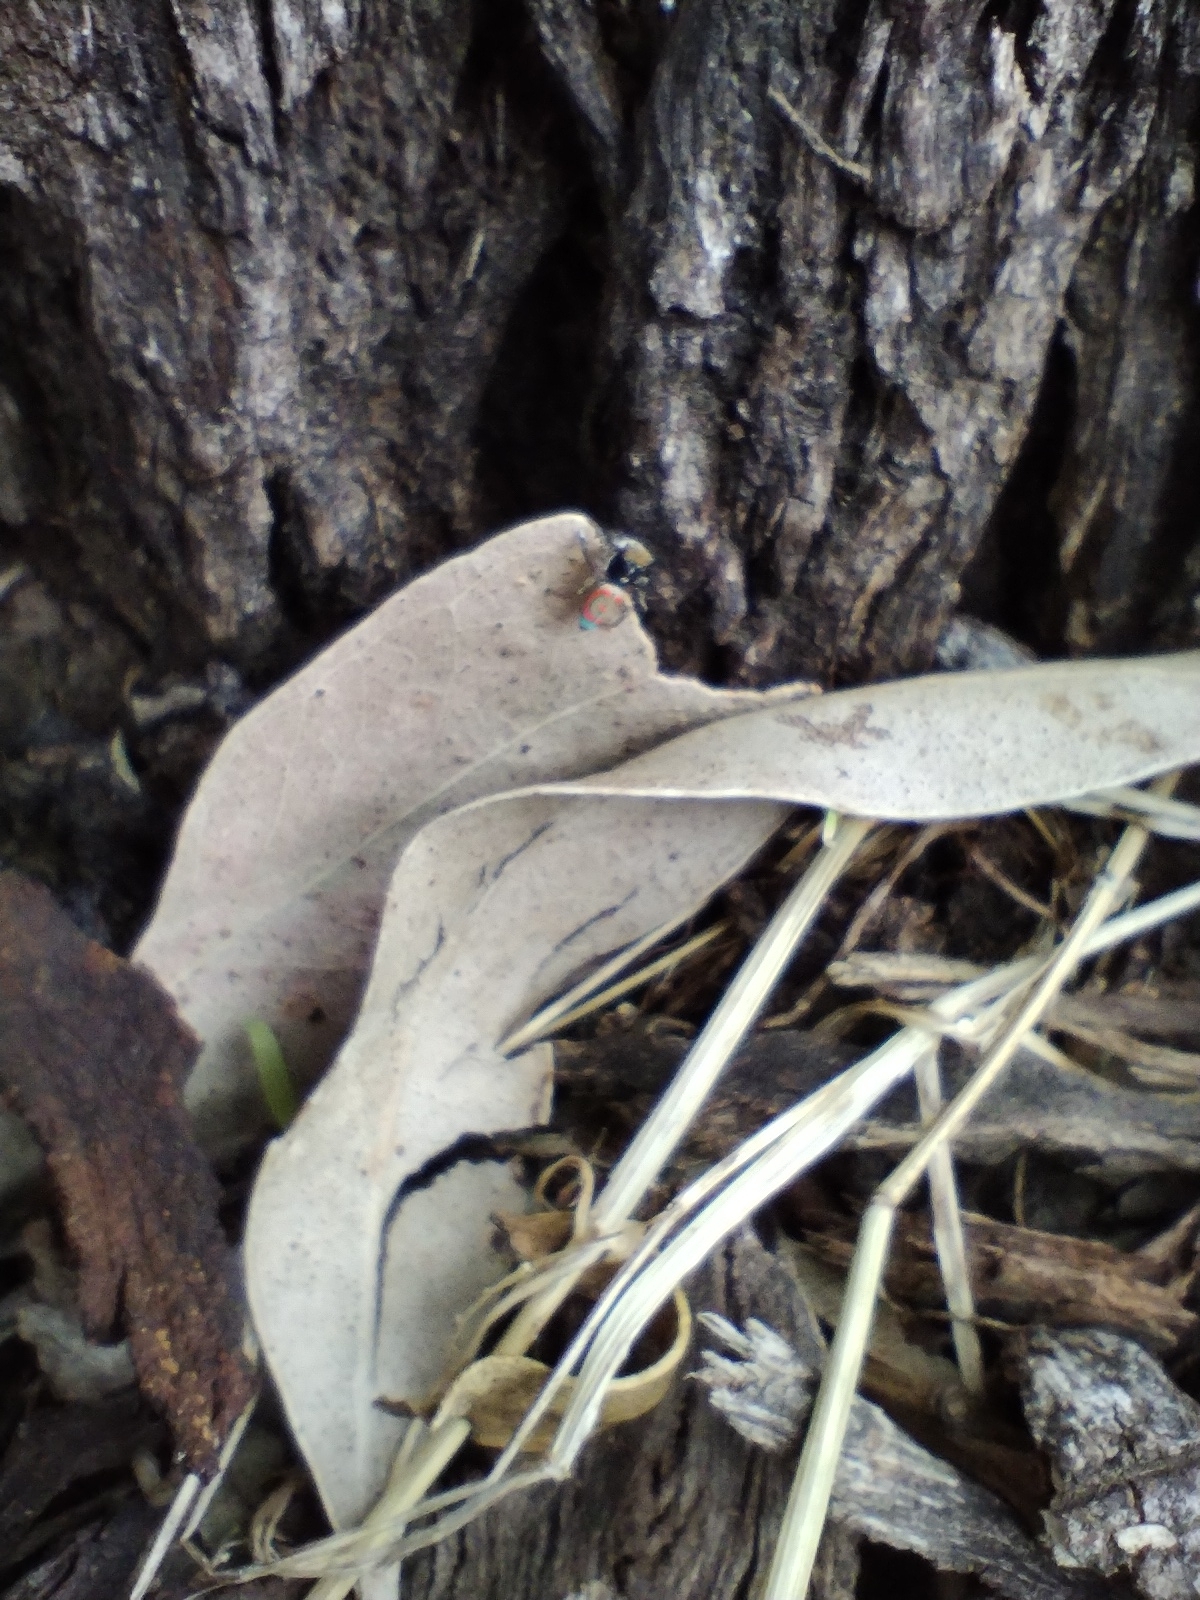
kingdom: Animalia
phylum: Arthropoda
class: Arachnida
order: Araneae
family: Salticidae
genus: Maratus
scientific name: Maratus pavonis
